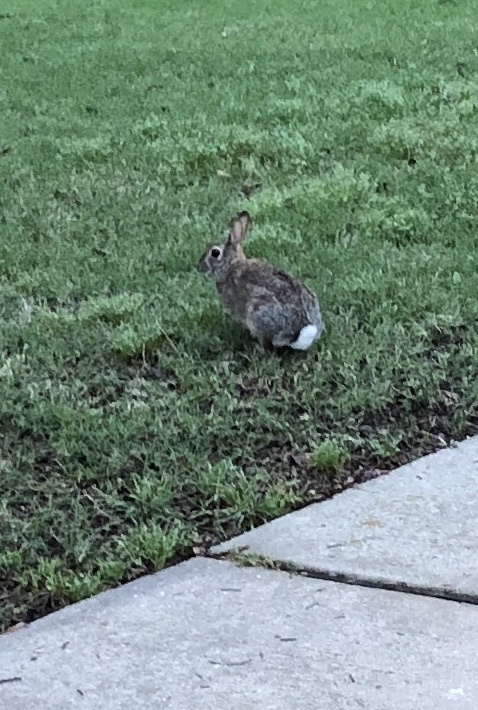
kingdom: Animalia
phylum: Chordata
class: Mammalia
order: Lagomorpha
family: Leporidae
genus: Sylvilagus
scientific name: Sylvilagus floridanus
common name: Eastern cottontail
